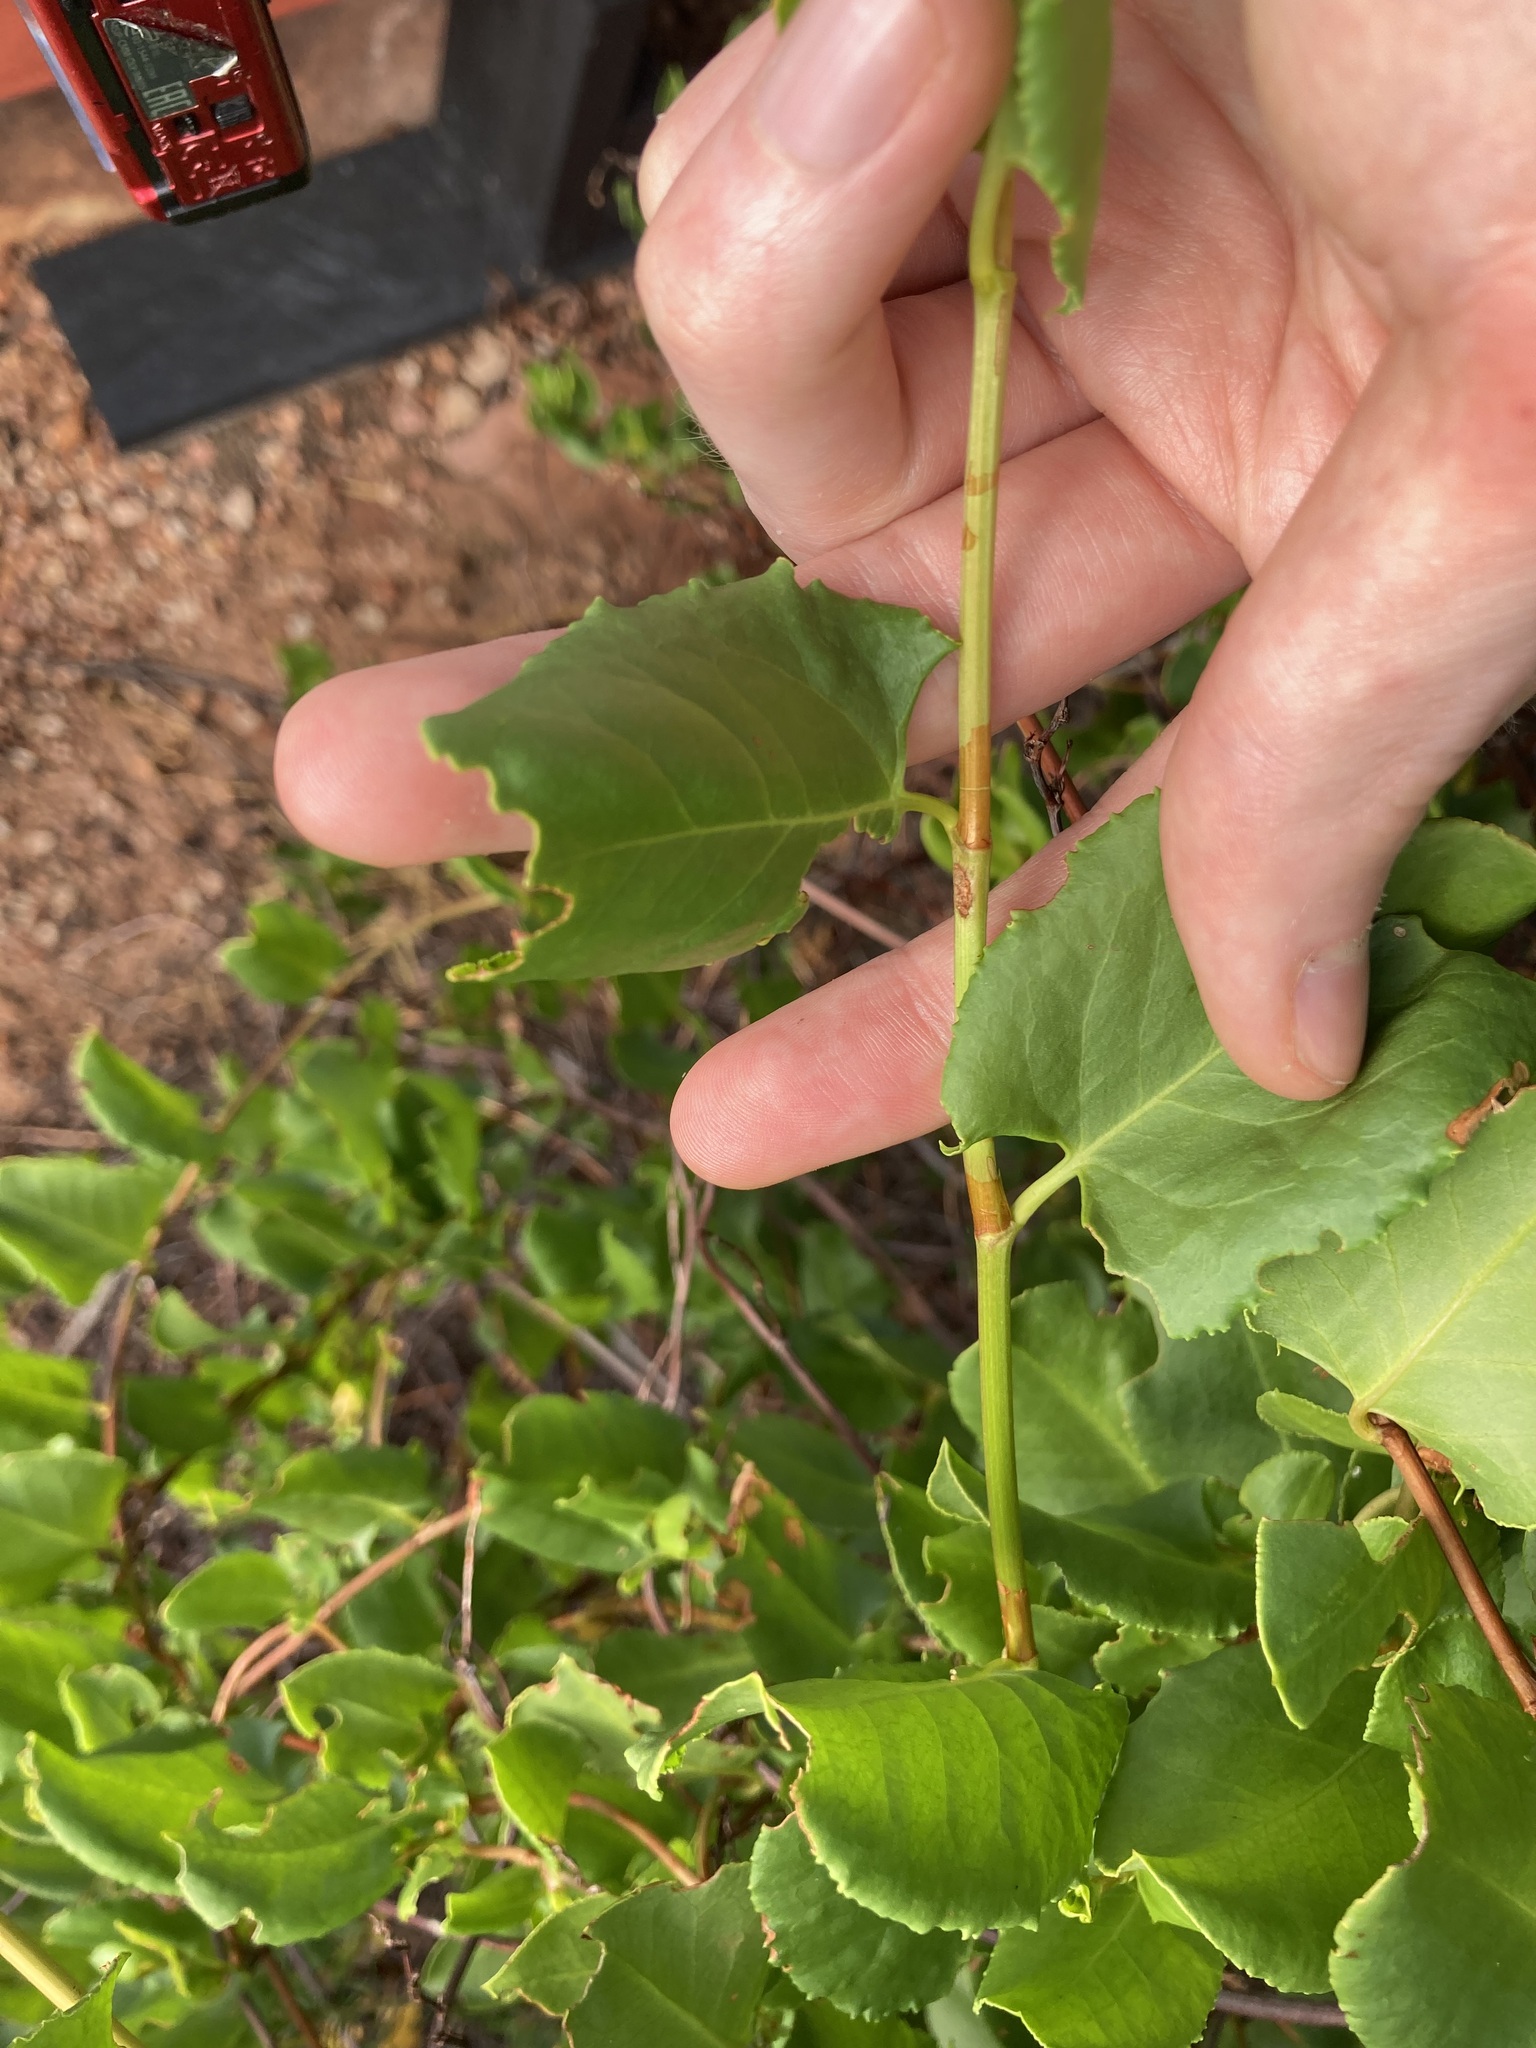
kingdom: Plantae
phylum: Tracheophyta
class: Magnoliopsida
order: Caryophyllales
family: Polygonaceae
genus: Muehlenbeckia
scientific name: Muehlenbeckia adpressa
